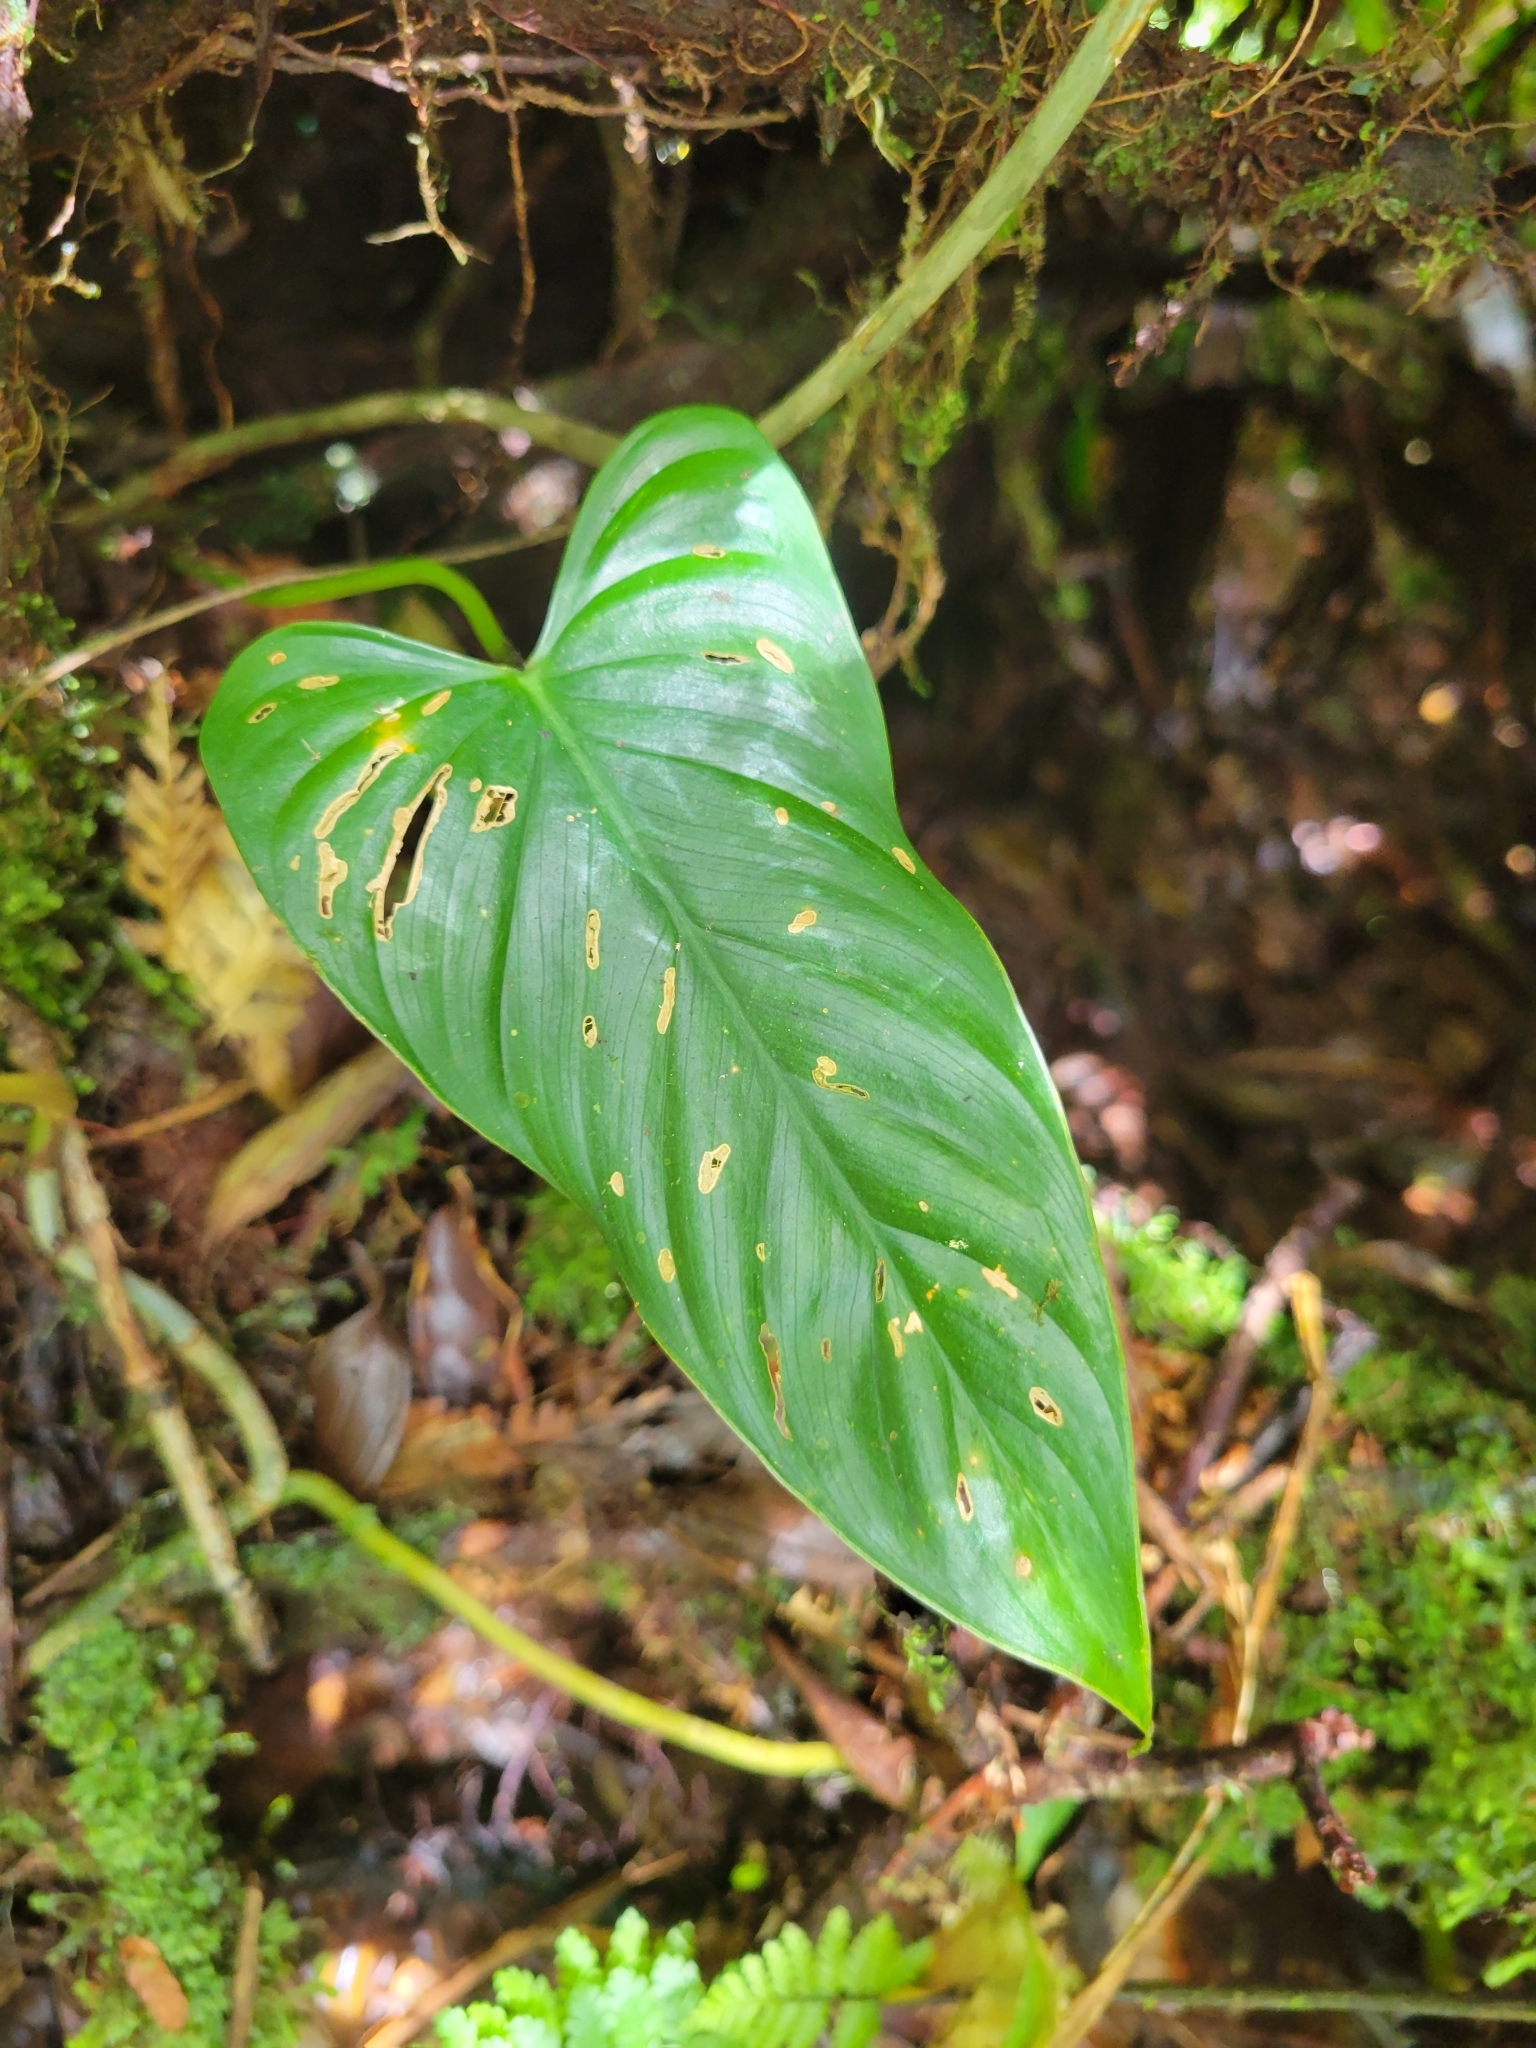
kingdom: Plantae
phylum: Tracheophyta
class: Liliopsida
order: Alismatales
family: Araceae
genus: Philodendron
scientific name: Philodendron verrucosum
